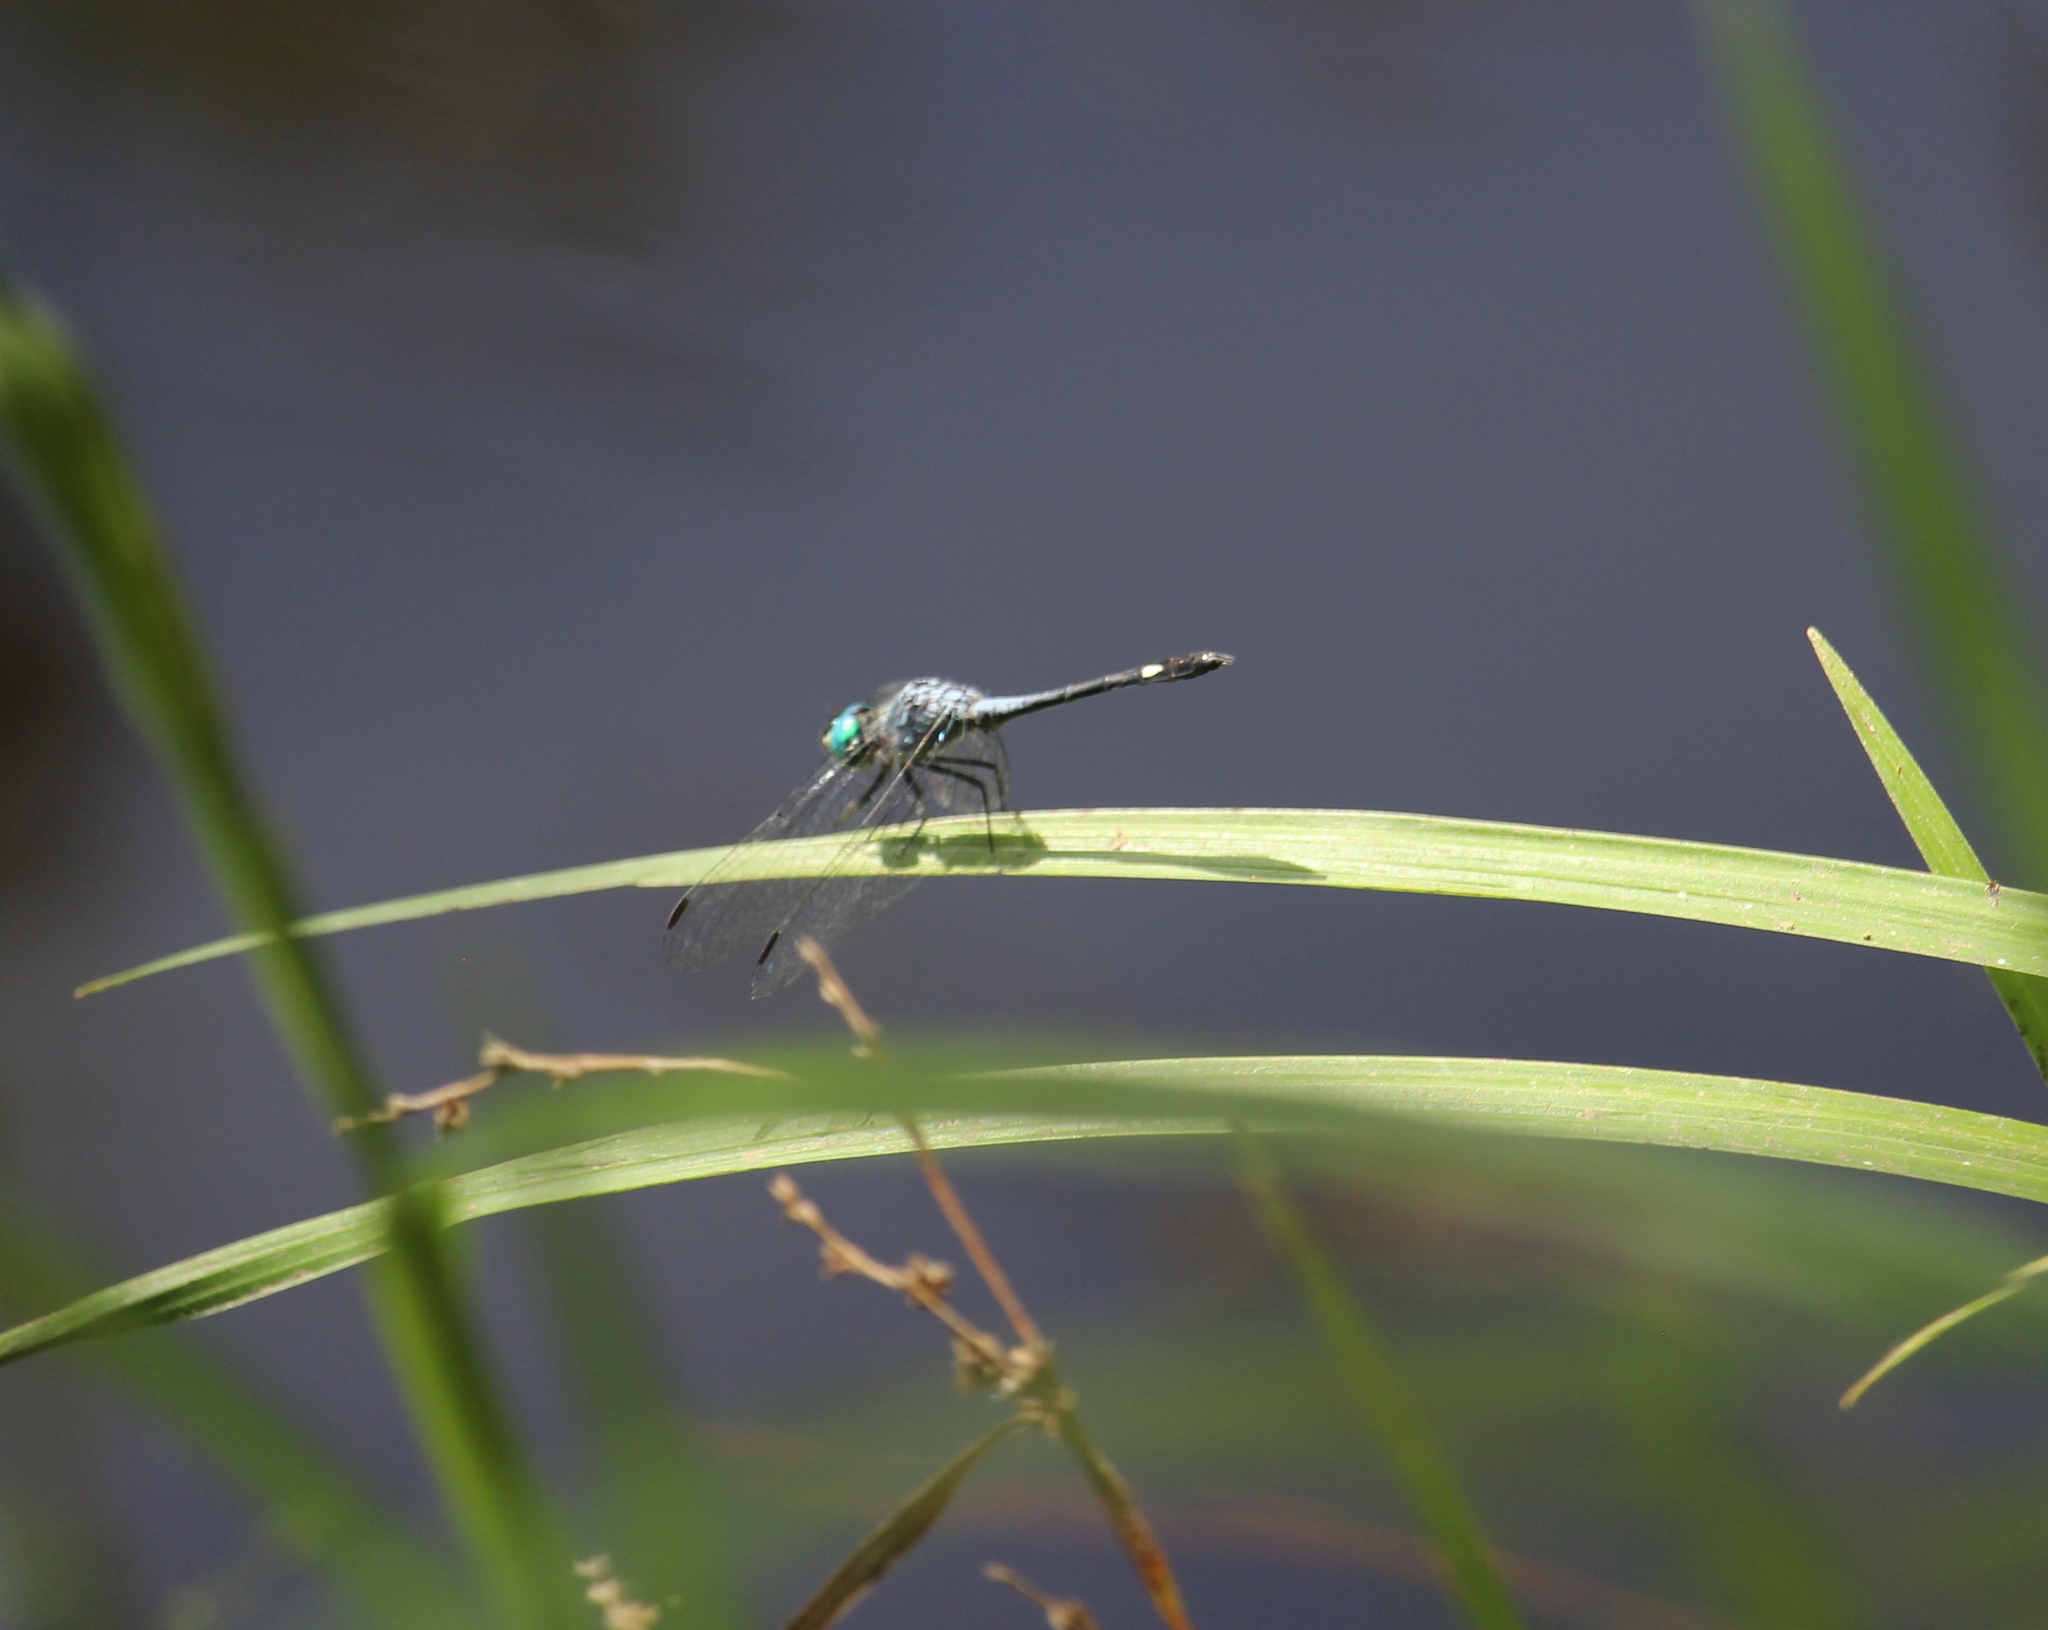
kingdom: Animalia
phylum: Arthropoda
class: Insecta
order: Odonata
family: Libellulidae
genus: Micrathyria
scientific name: Micrathyria aequalis
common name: Spot-tailed dasher
